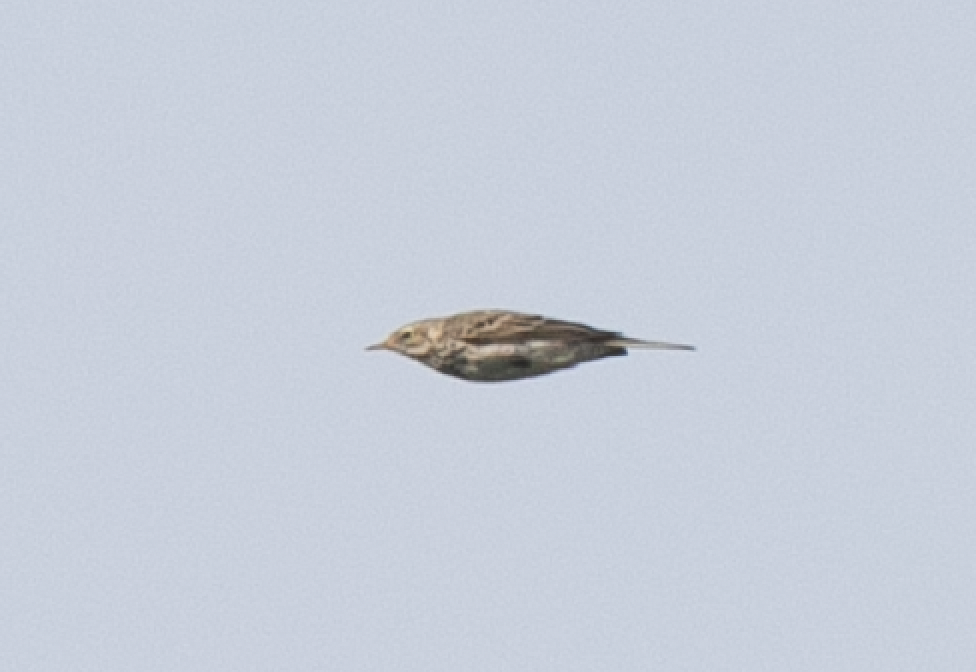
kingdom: Animalia
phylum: Chordata
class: Aves
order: Passeriformes
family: Motacillidae
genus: Anthus
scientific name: Anthus pratensis
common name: Meadow pipit
